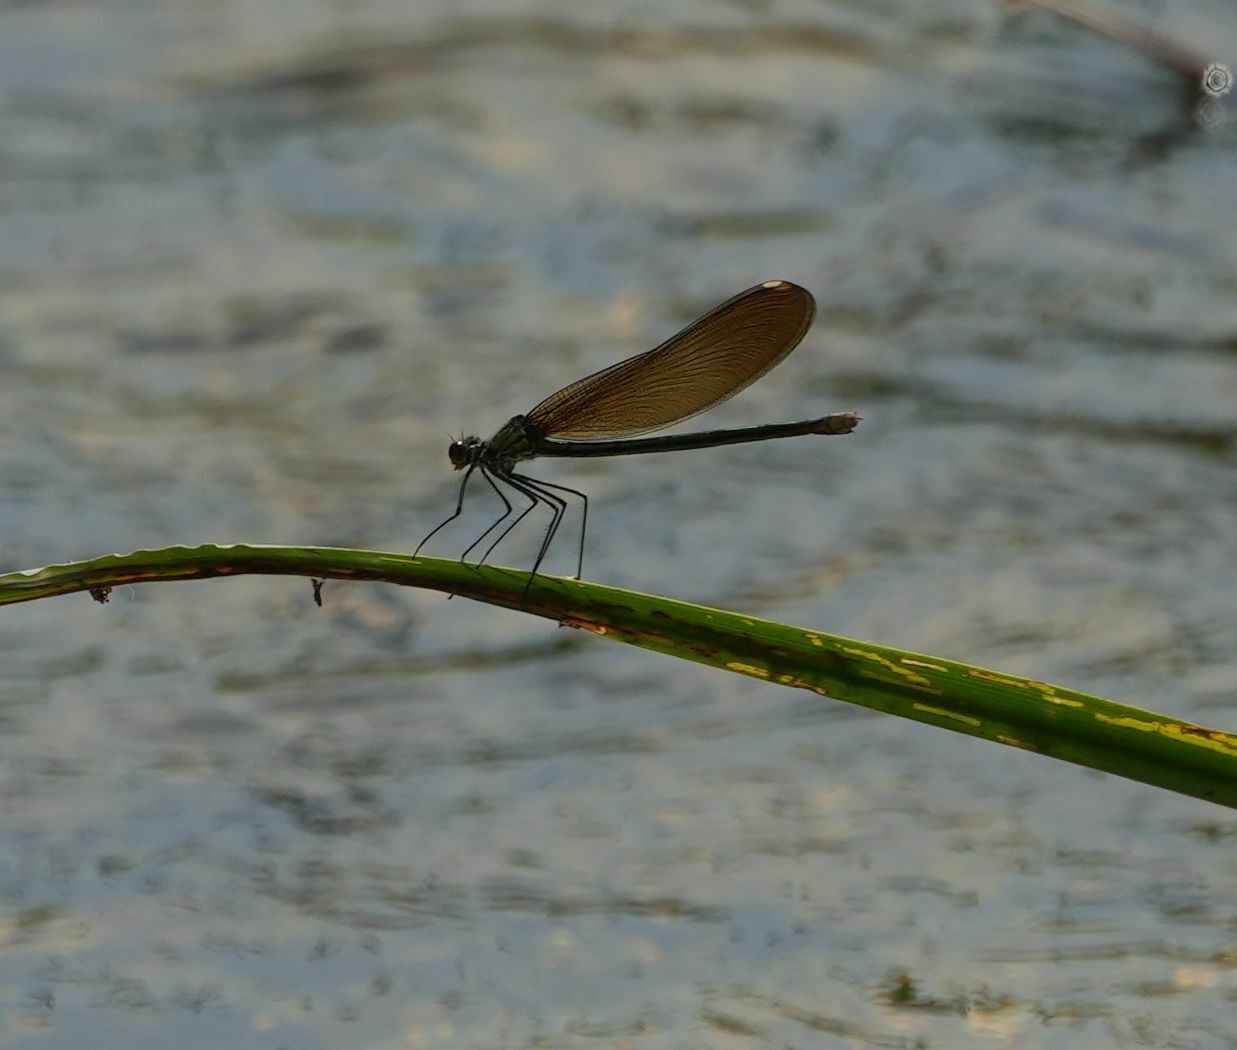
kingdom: Animalia
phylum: Arthropoda
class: Insecta
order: Odonata
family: Calopterygidae
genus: Calopteryx
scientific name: Calopteryx aequabilis
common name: River jewelwing
